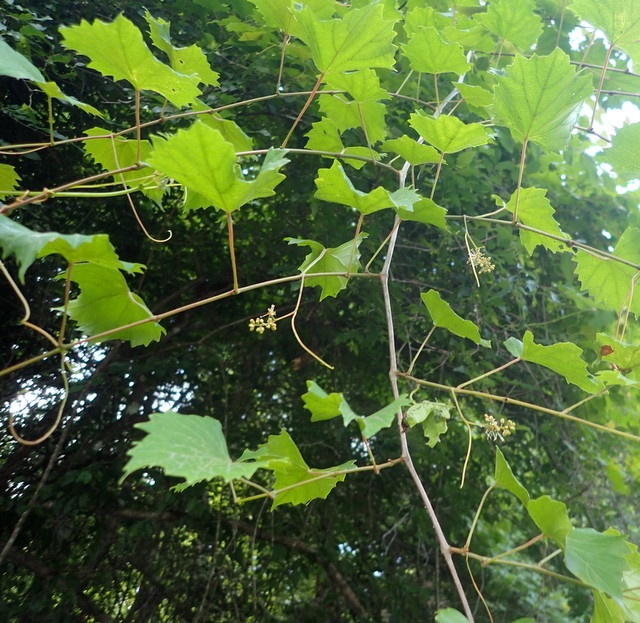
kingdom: Plantae
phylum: Tracheophyta
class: Magnoliopsida
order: Vitales
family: Vitaceae
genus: Vitis
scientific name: Vitis rotundifolia
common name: Muscadine grape
